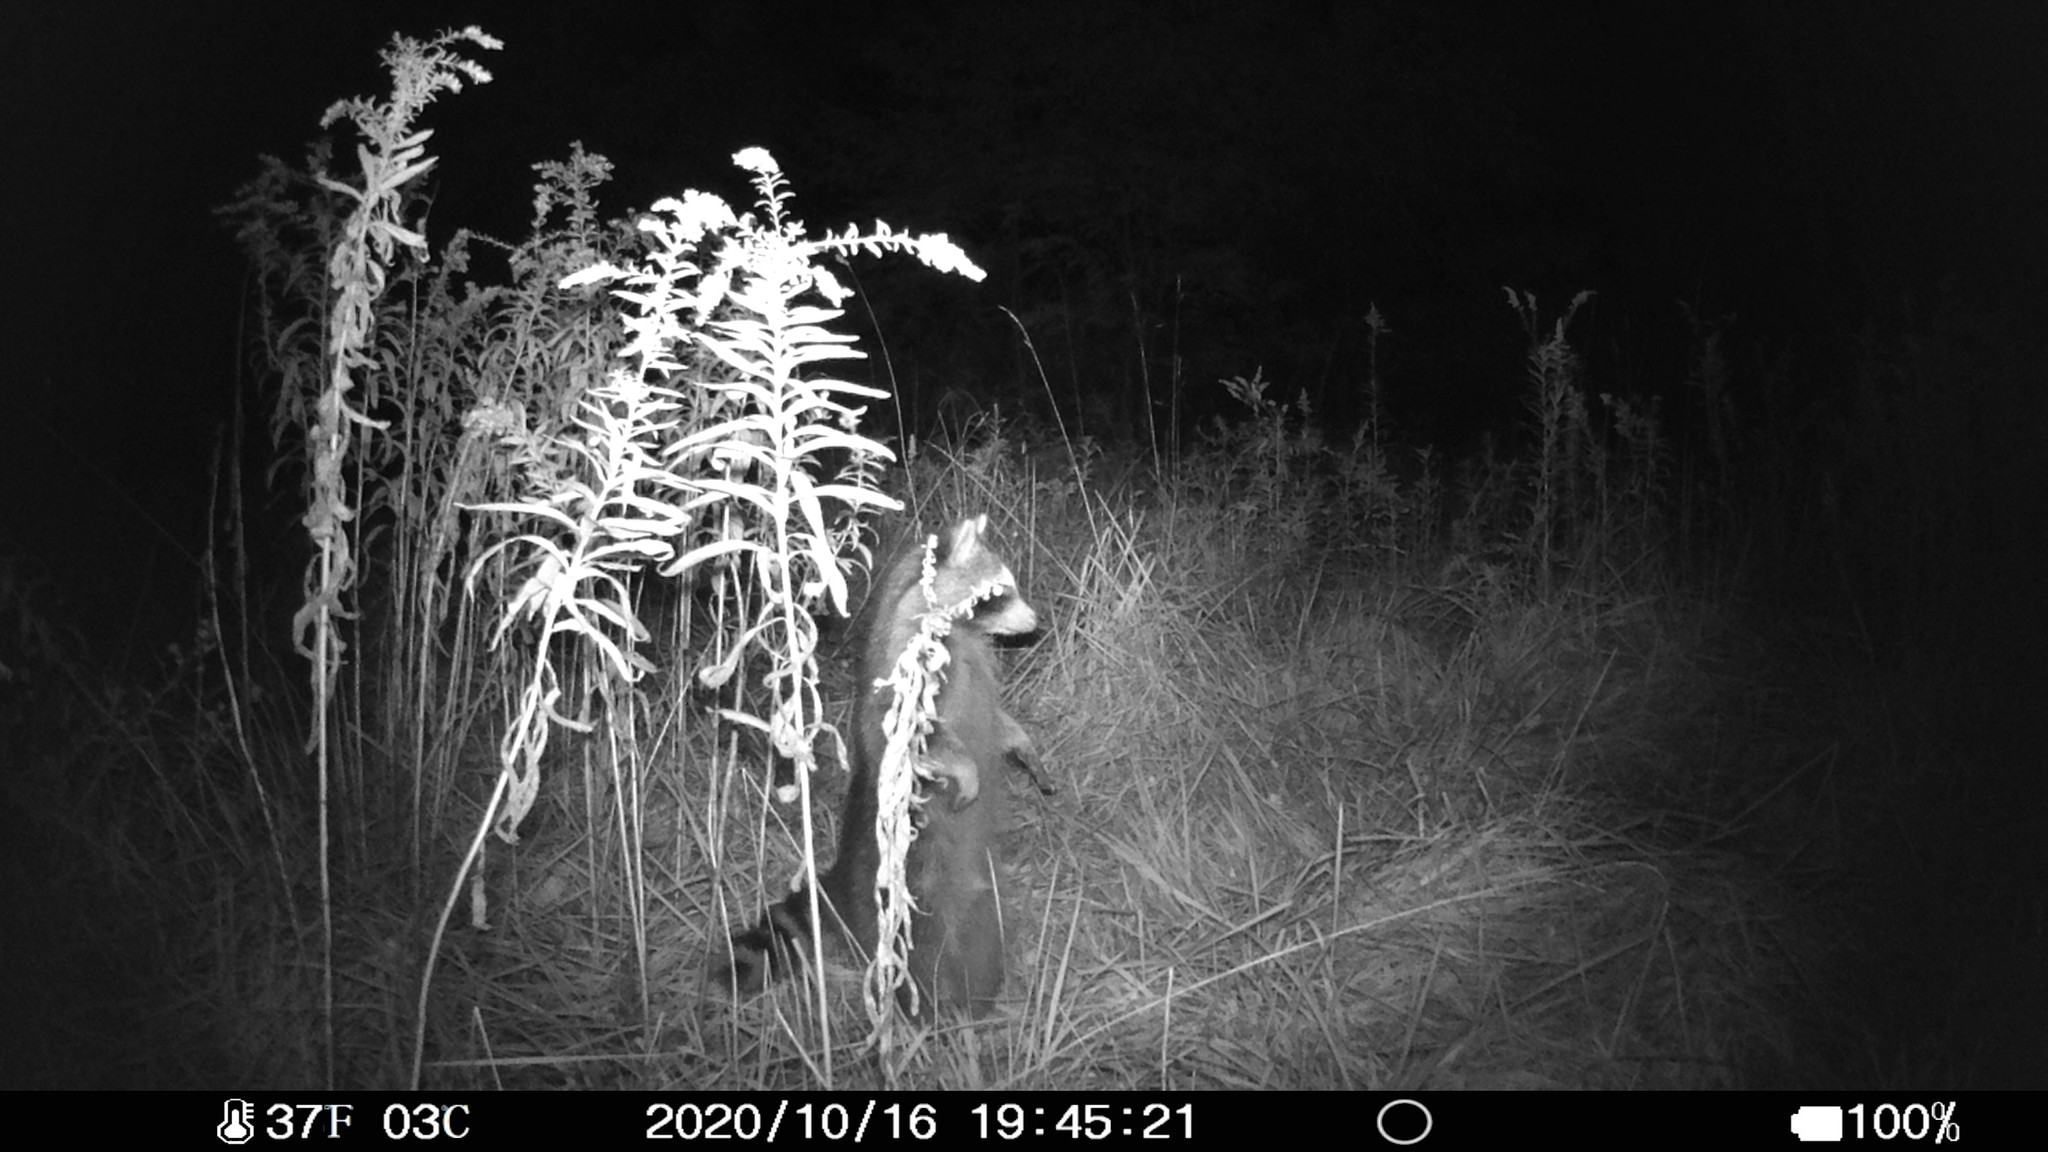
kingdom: Animalia
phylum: Chordata
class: Mammalia
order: Carnivora
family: Procyonidae
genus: Procyon
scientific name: Procyon lotor
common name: Raccoon
